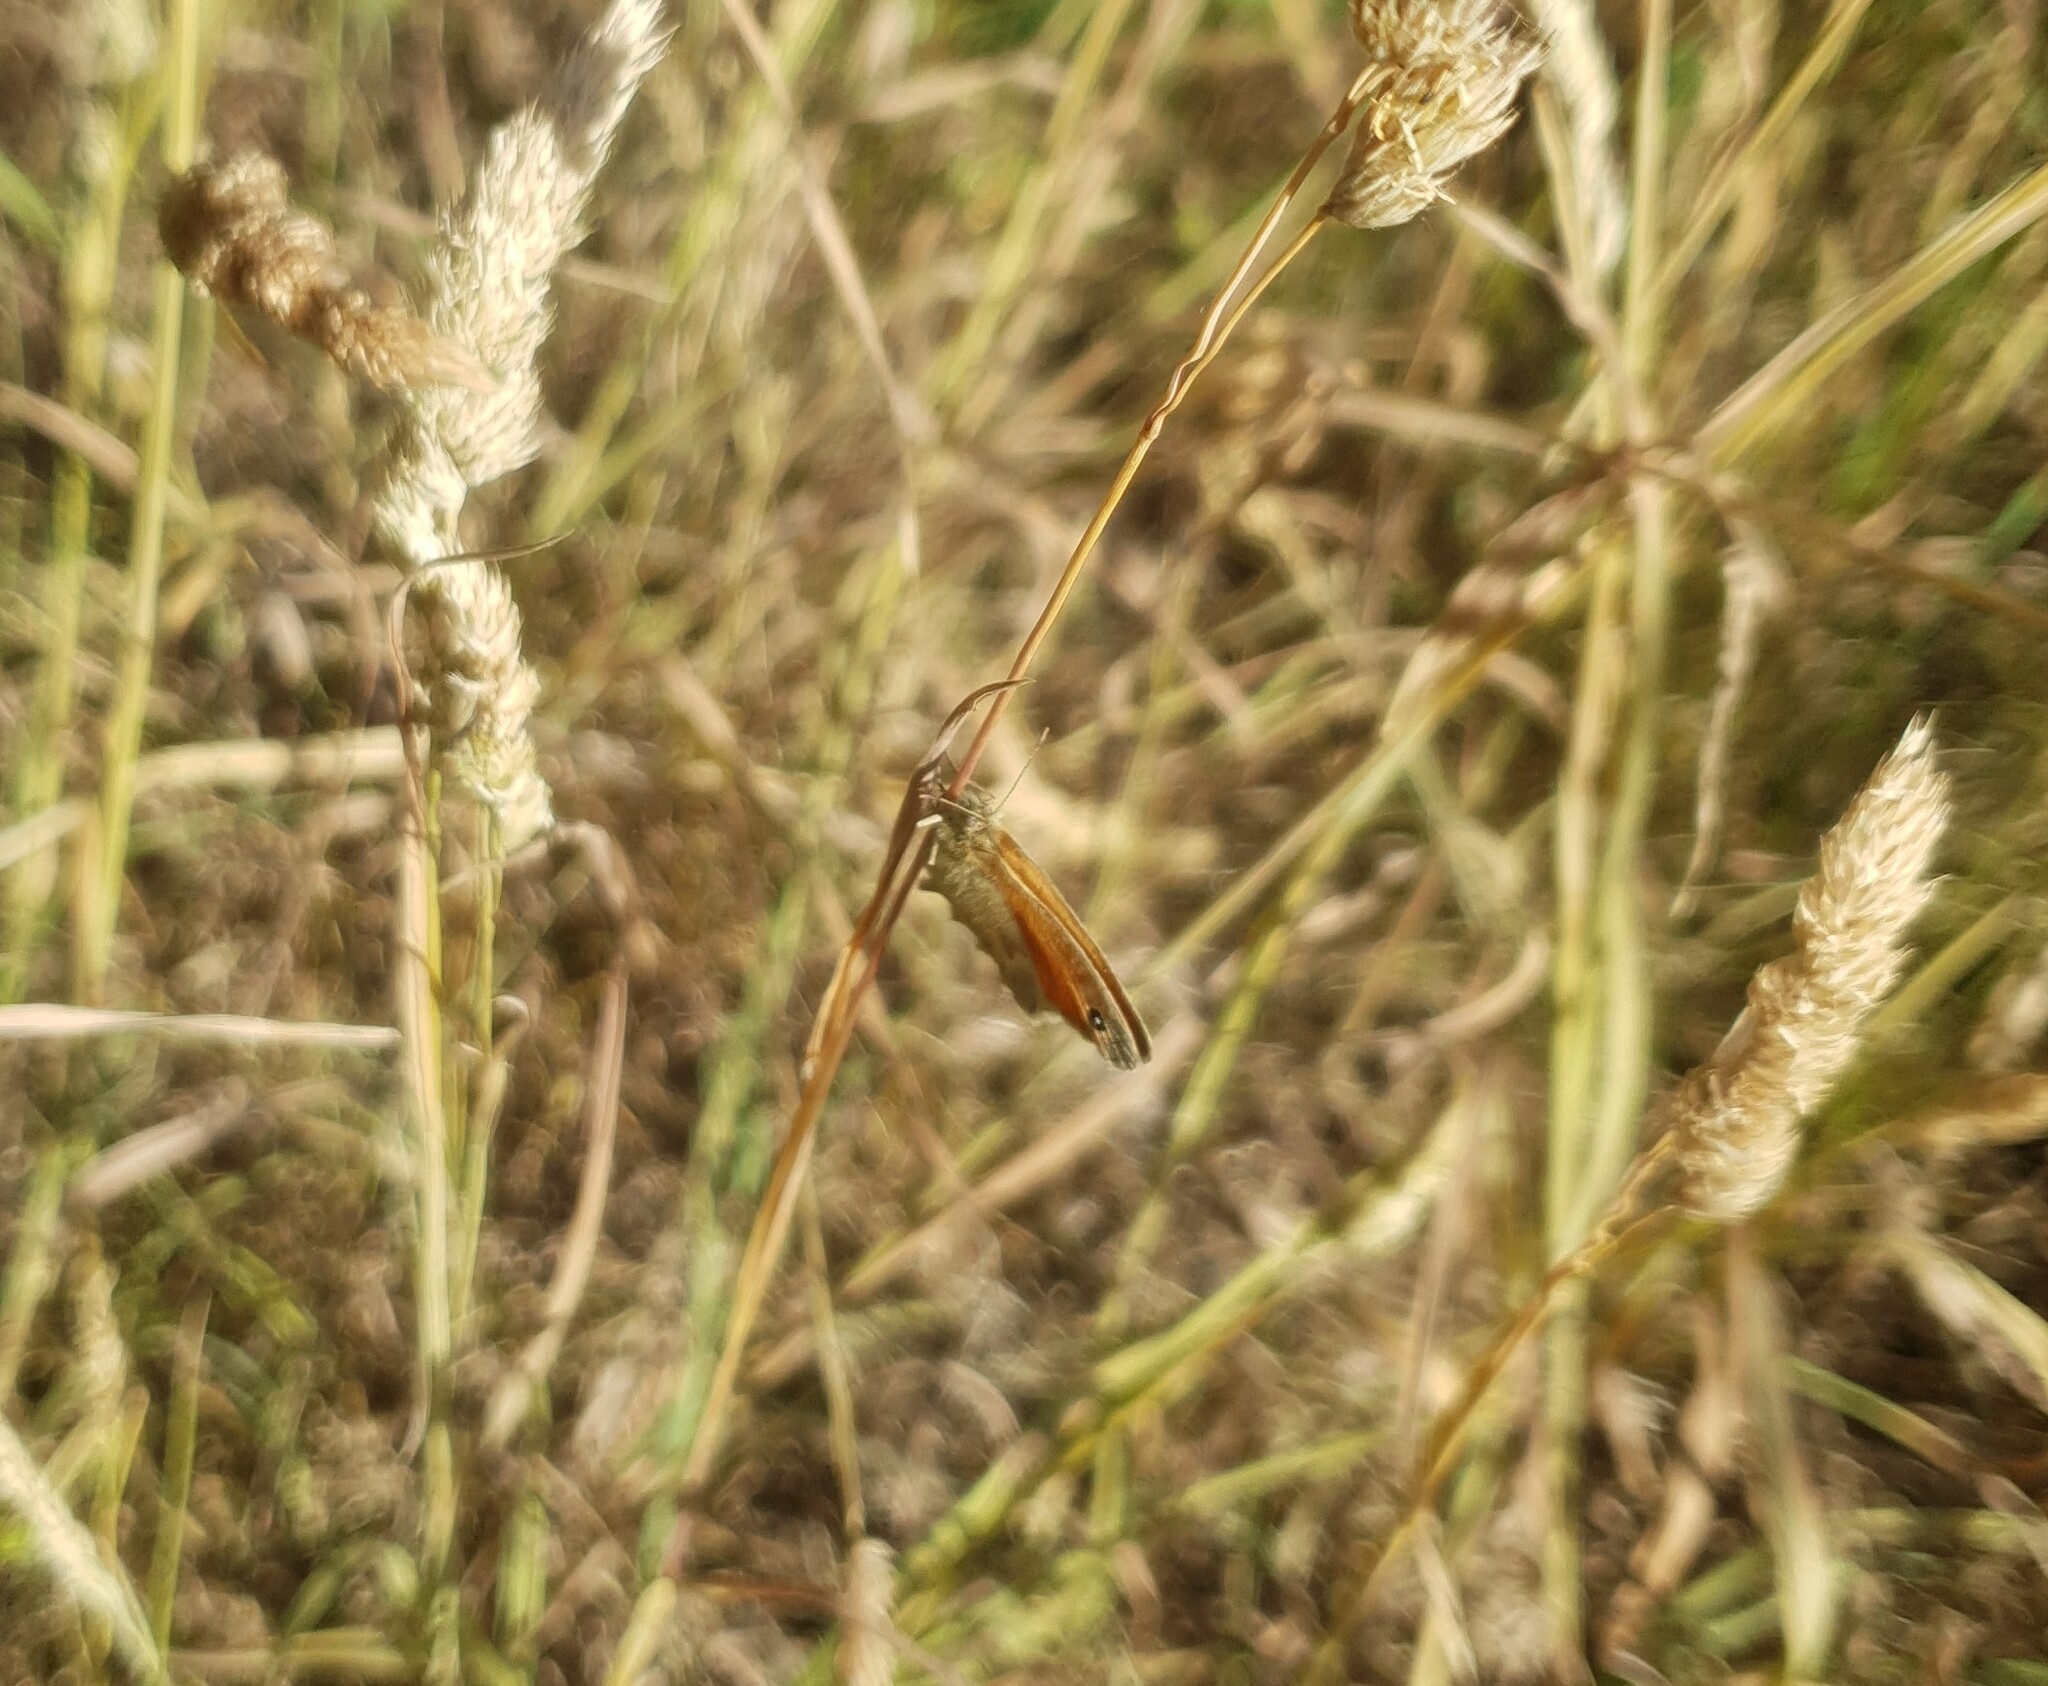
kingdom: Animalia
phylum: Arthropoda
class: Insecta
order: Lepidoptera
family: Nymphalidae
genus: Coenonympha
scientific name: Coenonympha pamphilus
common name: Small heath
